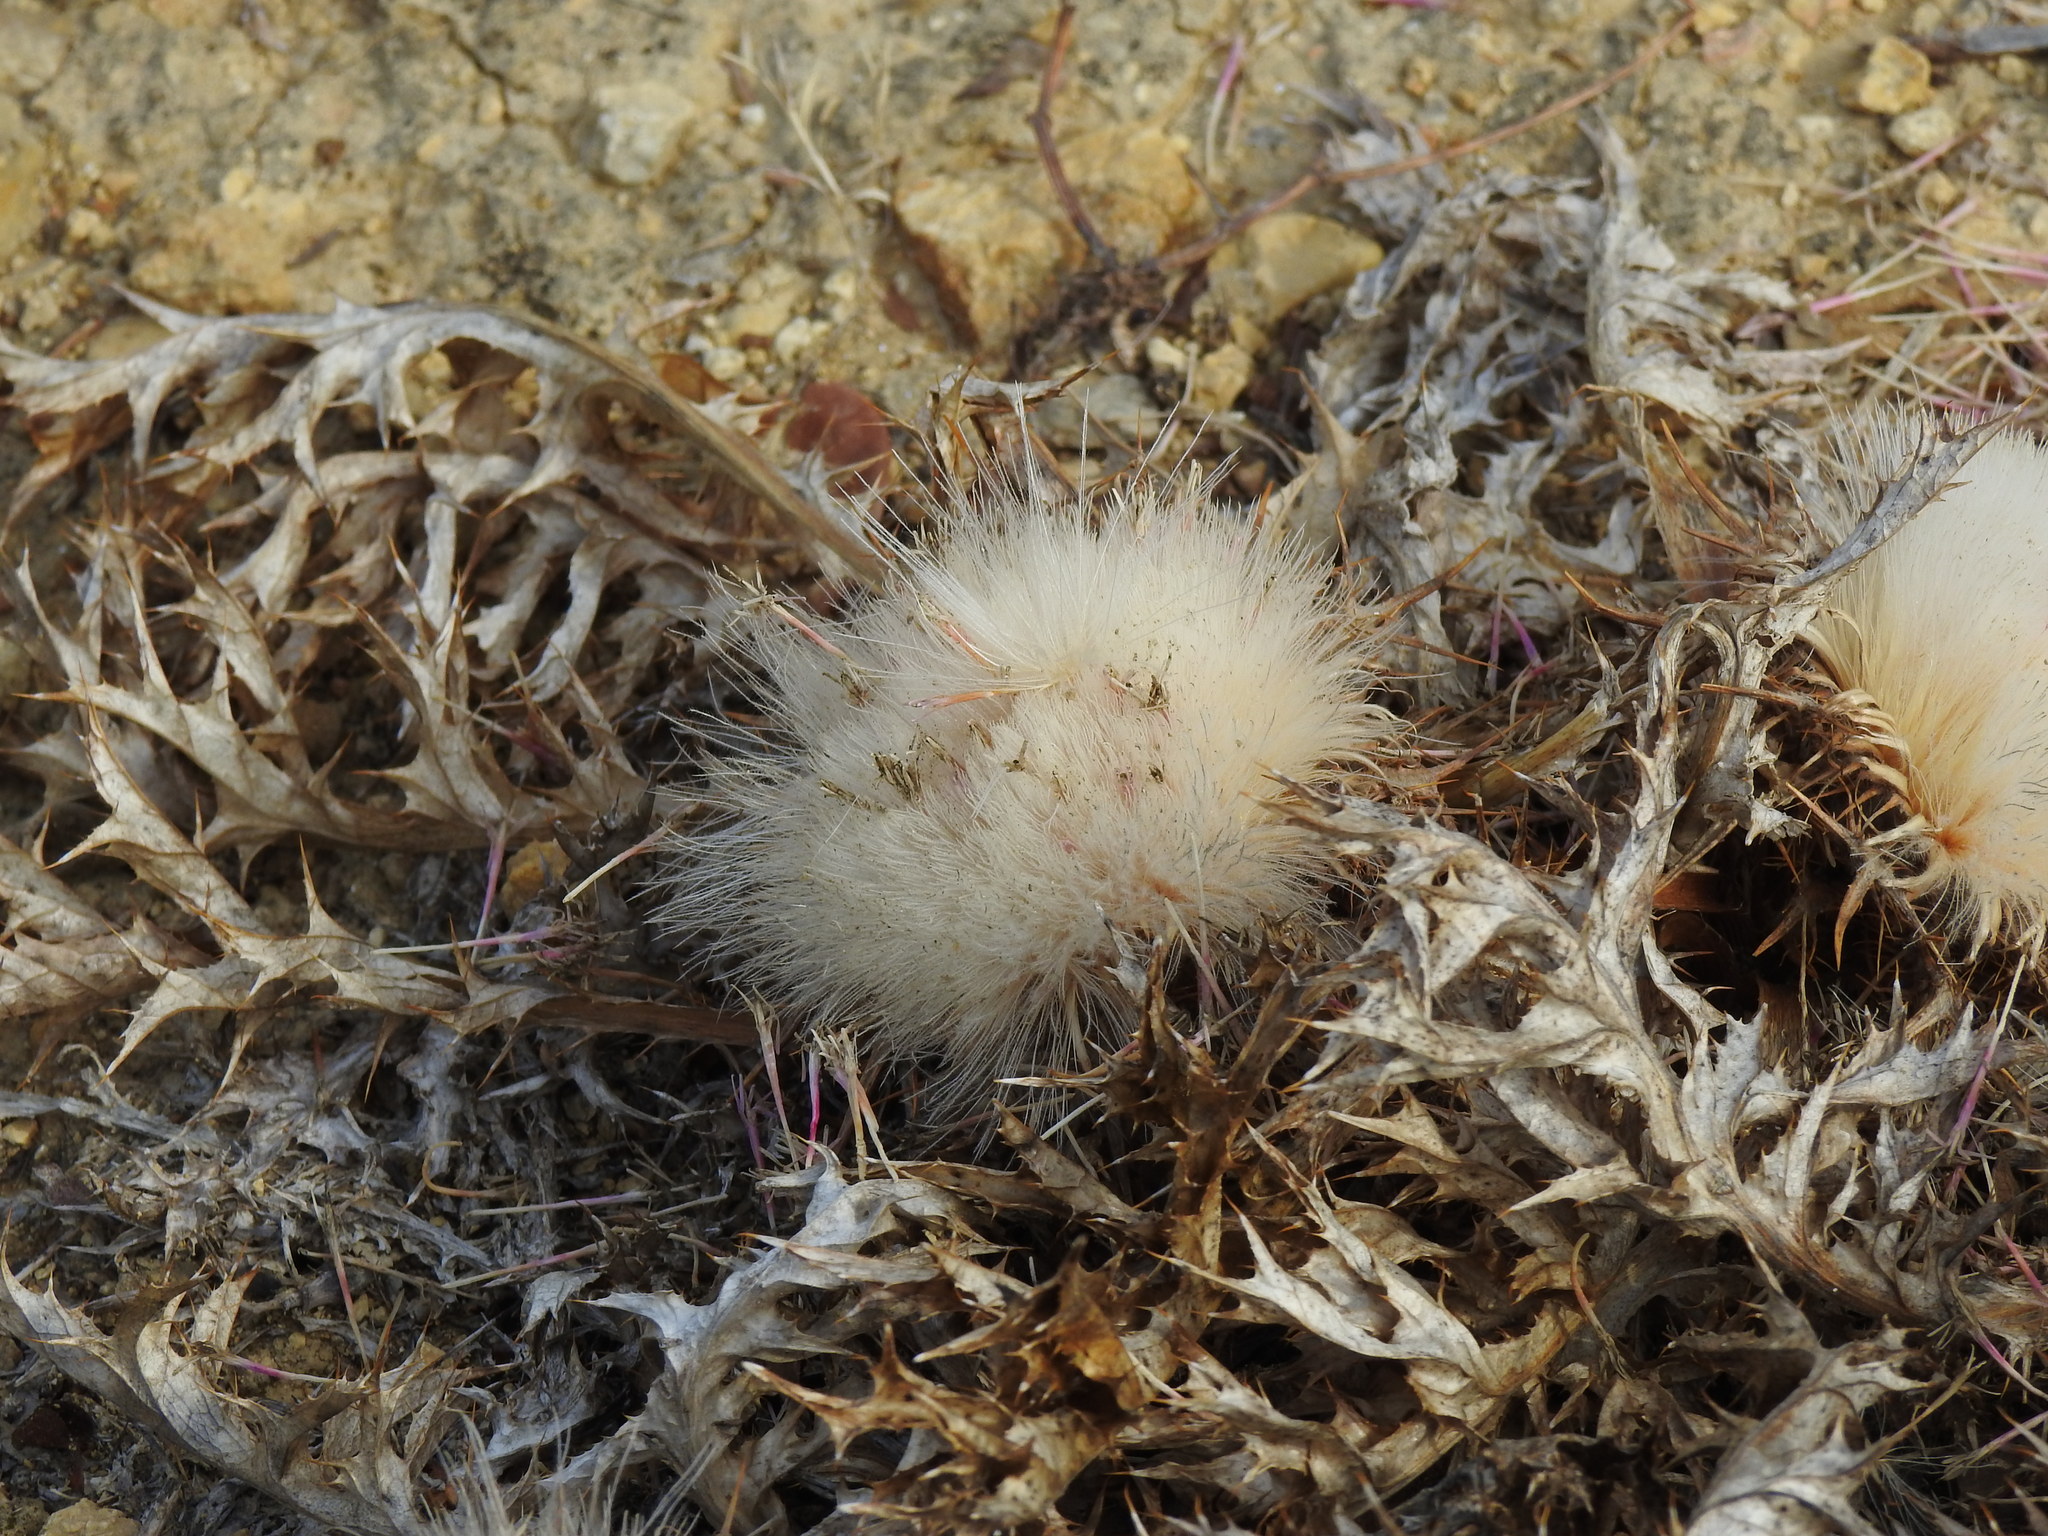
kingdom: Plantae
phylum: Tracheophyta
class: Magnoliopsida
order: Asterales
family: Asteraceae
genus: Chamaeleon
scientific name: Chamaeleon gummifer
